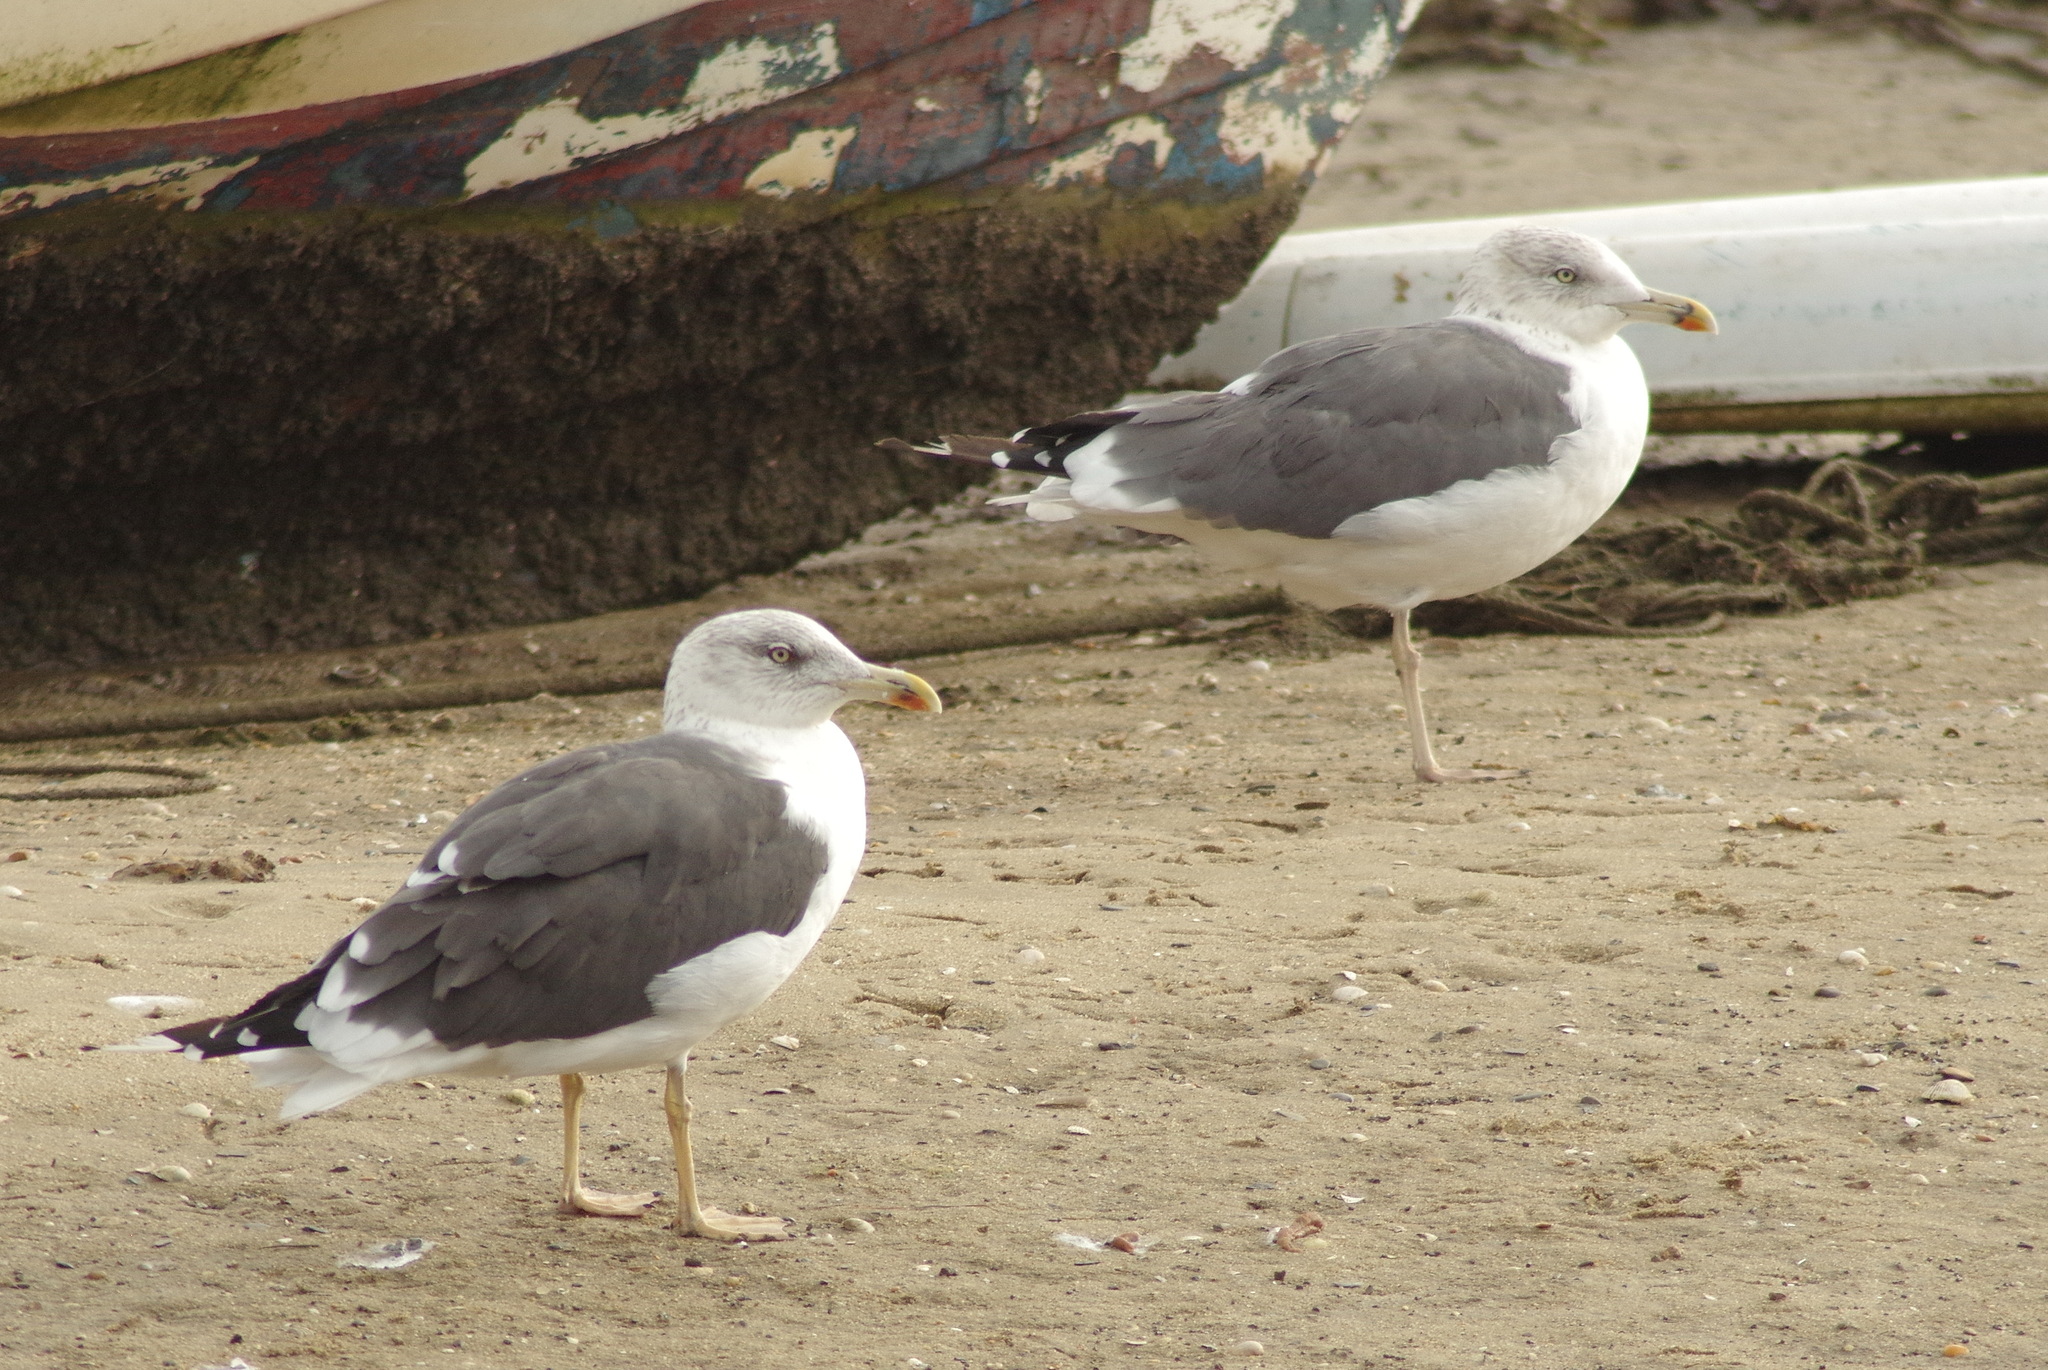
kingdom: Animalia
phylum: Chordata
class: Aves
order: Charadriiformes
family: Laridae
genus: Larus
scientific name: Larus fuscus
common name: Lesser black-backed gull
